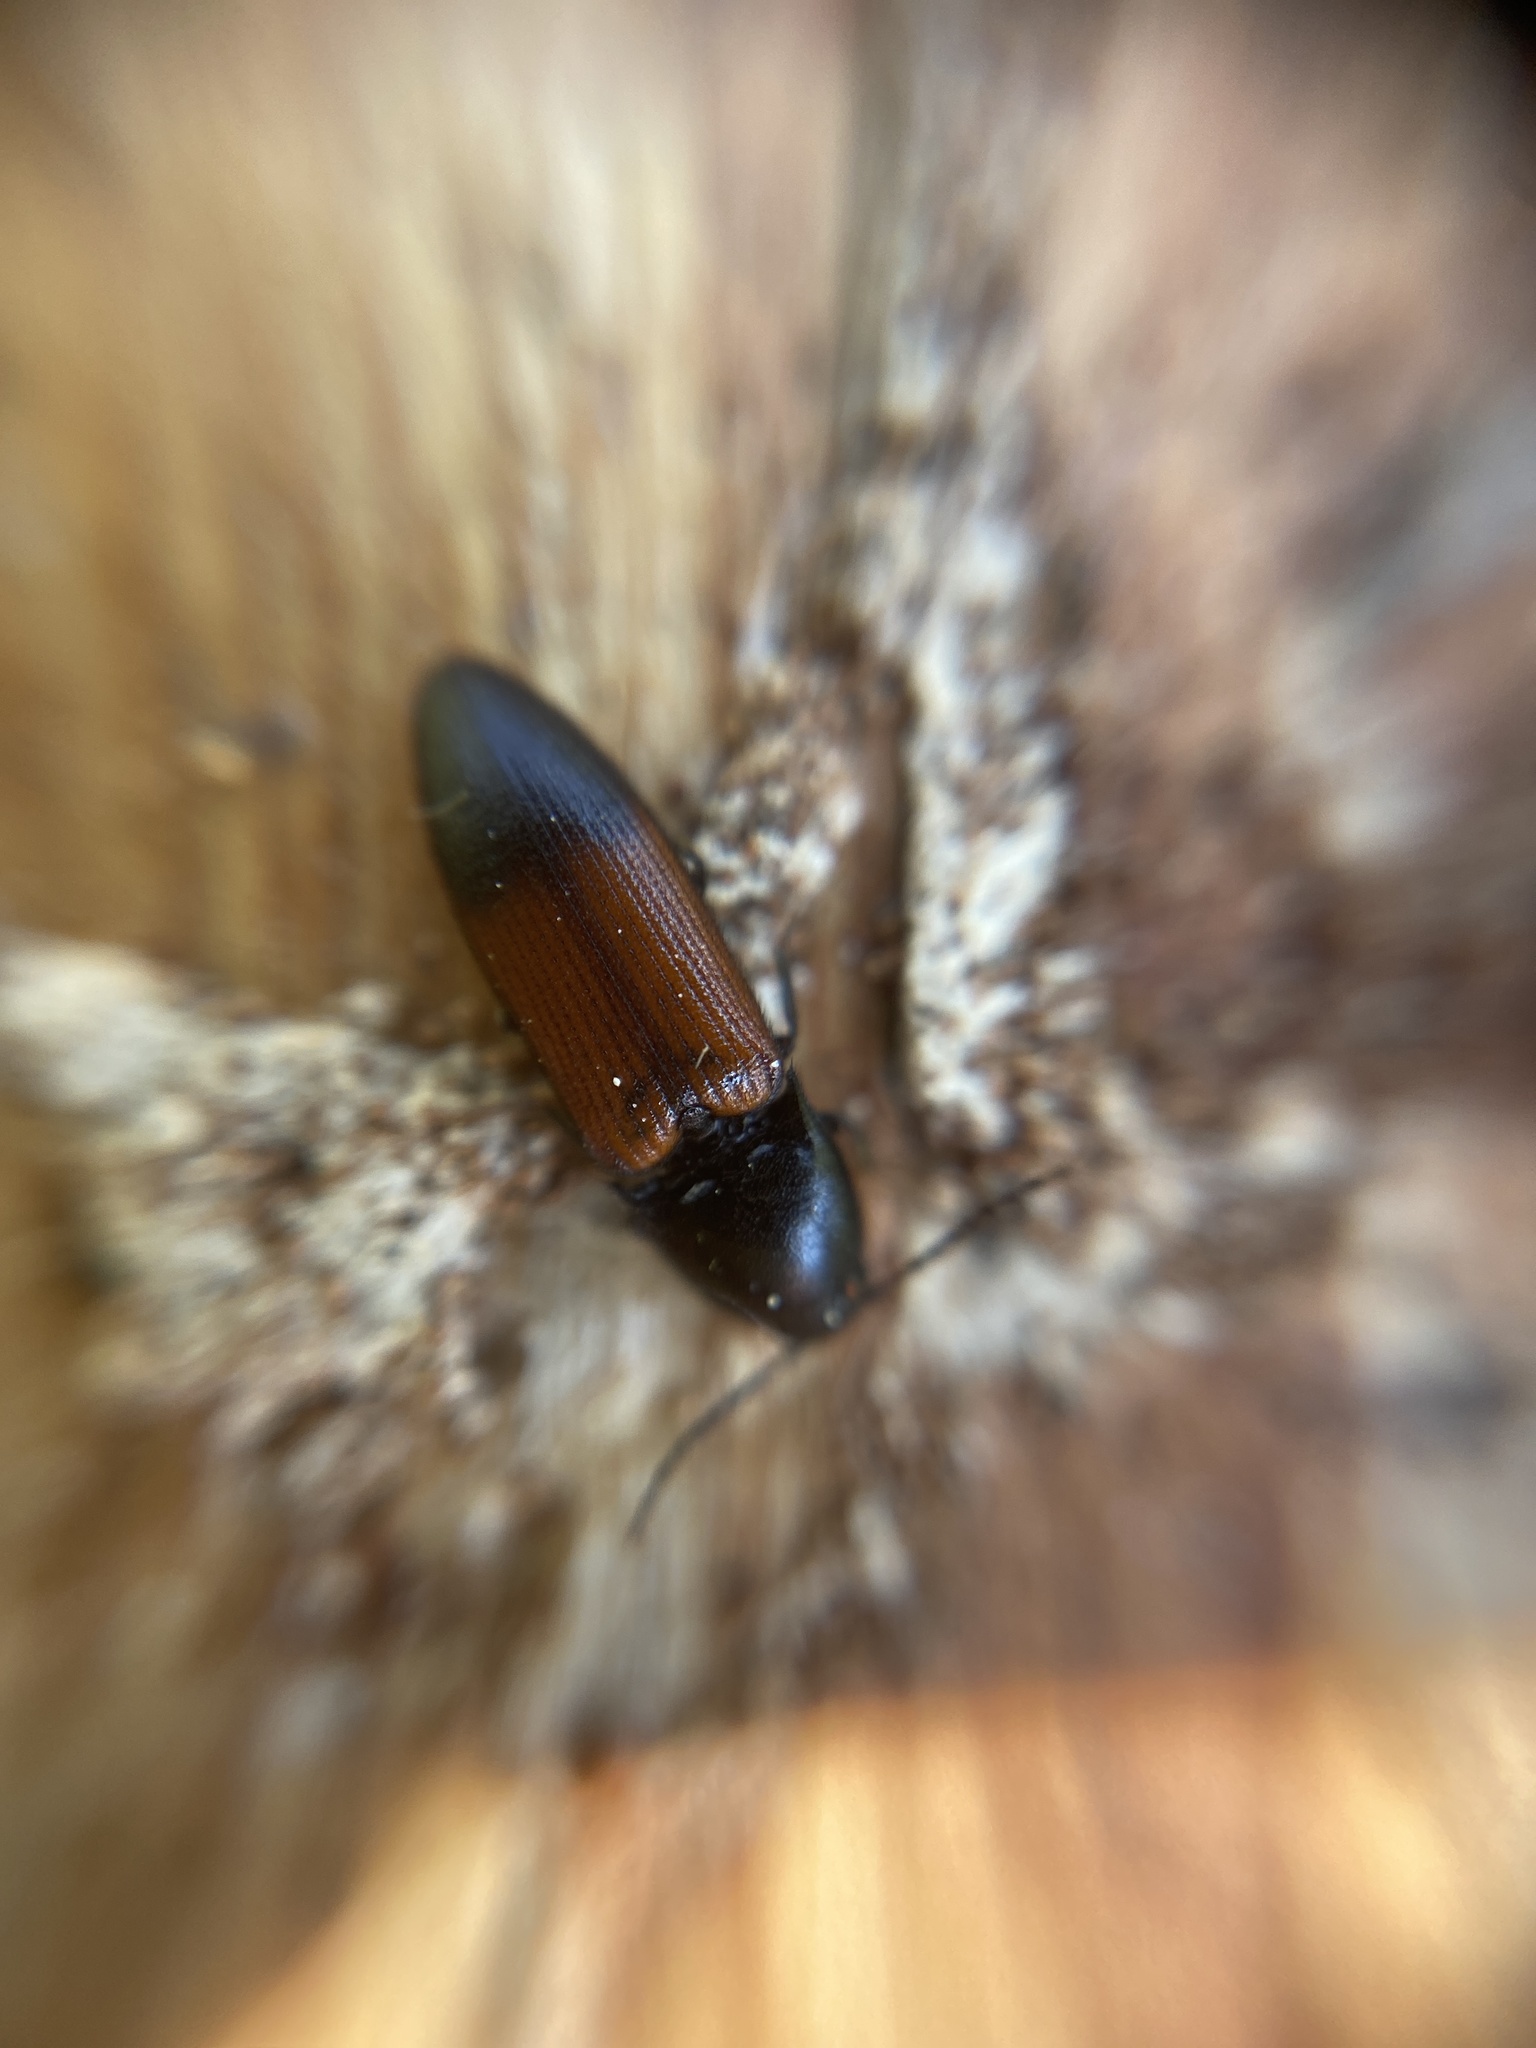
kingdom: Animalia
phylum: Arthropoda
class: Insecta
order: Coleoptera
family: Elateridae
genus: Ampedus
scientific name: Ampedus balteatus
